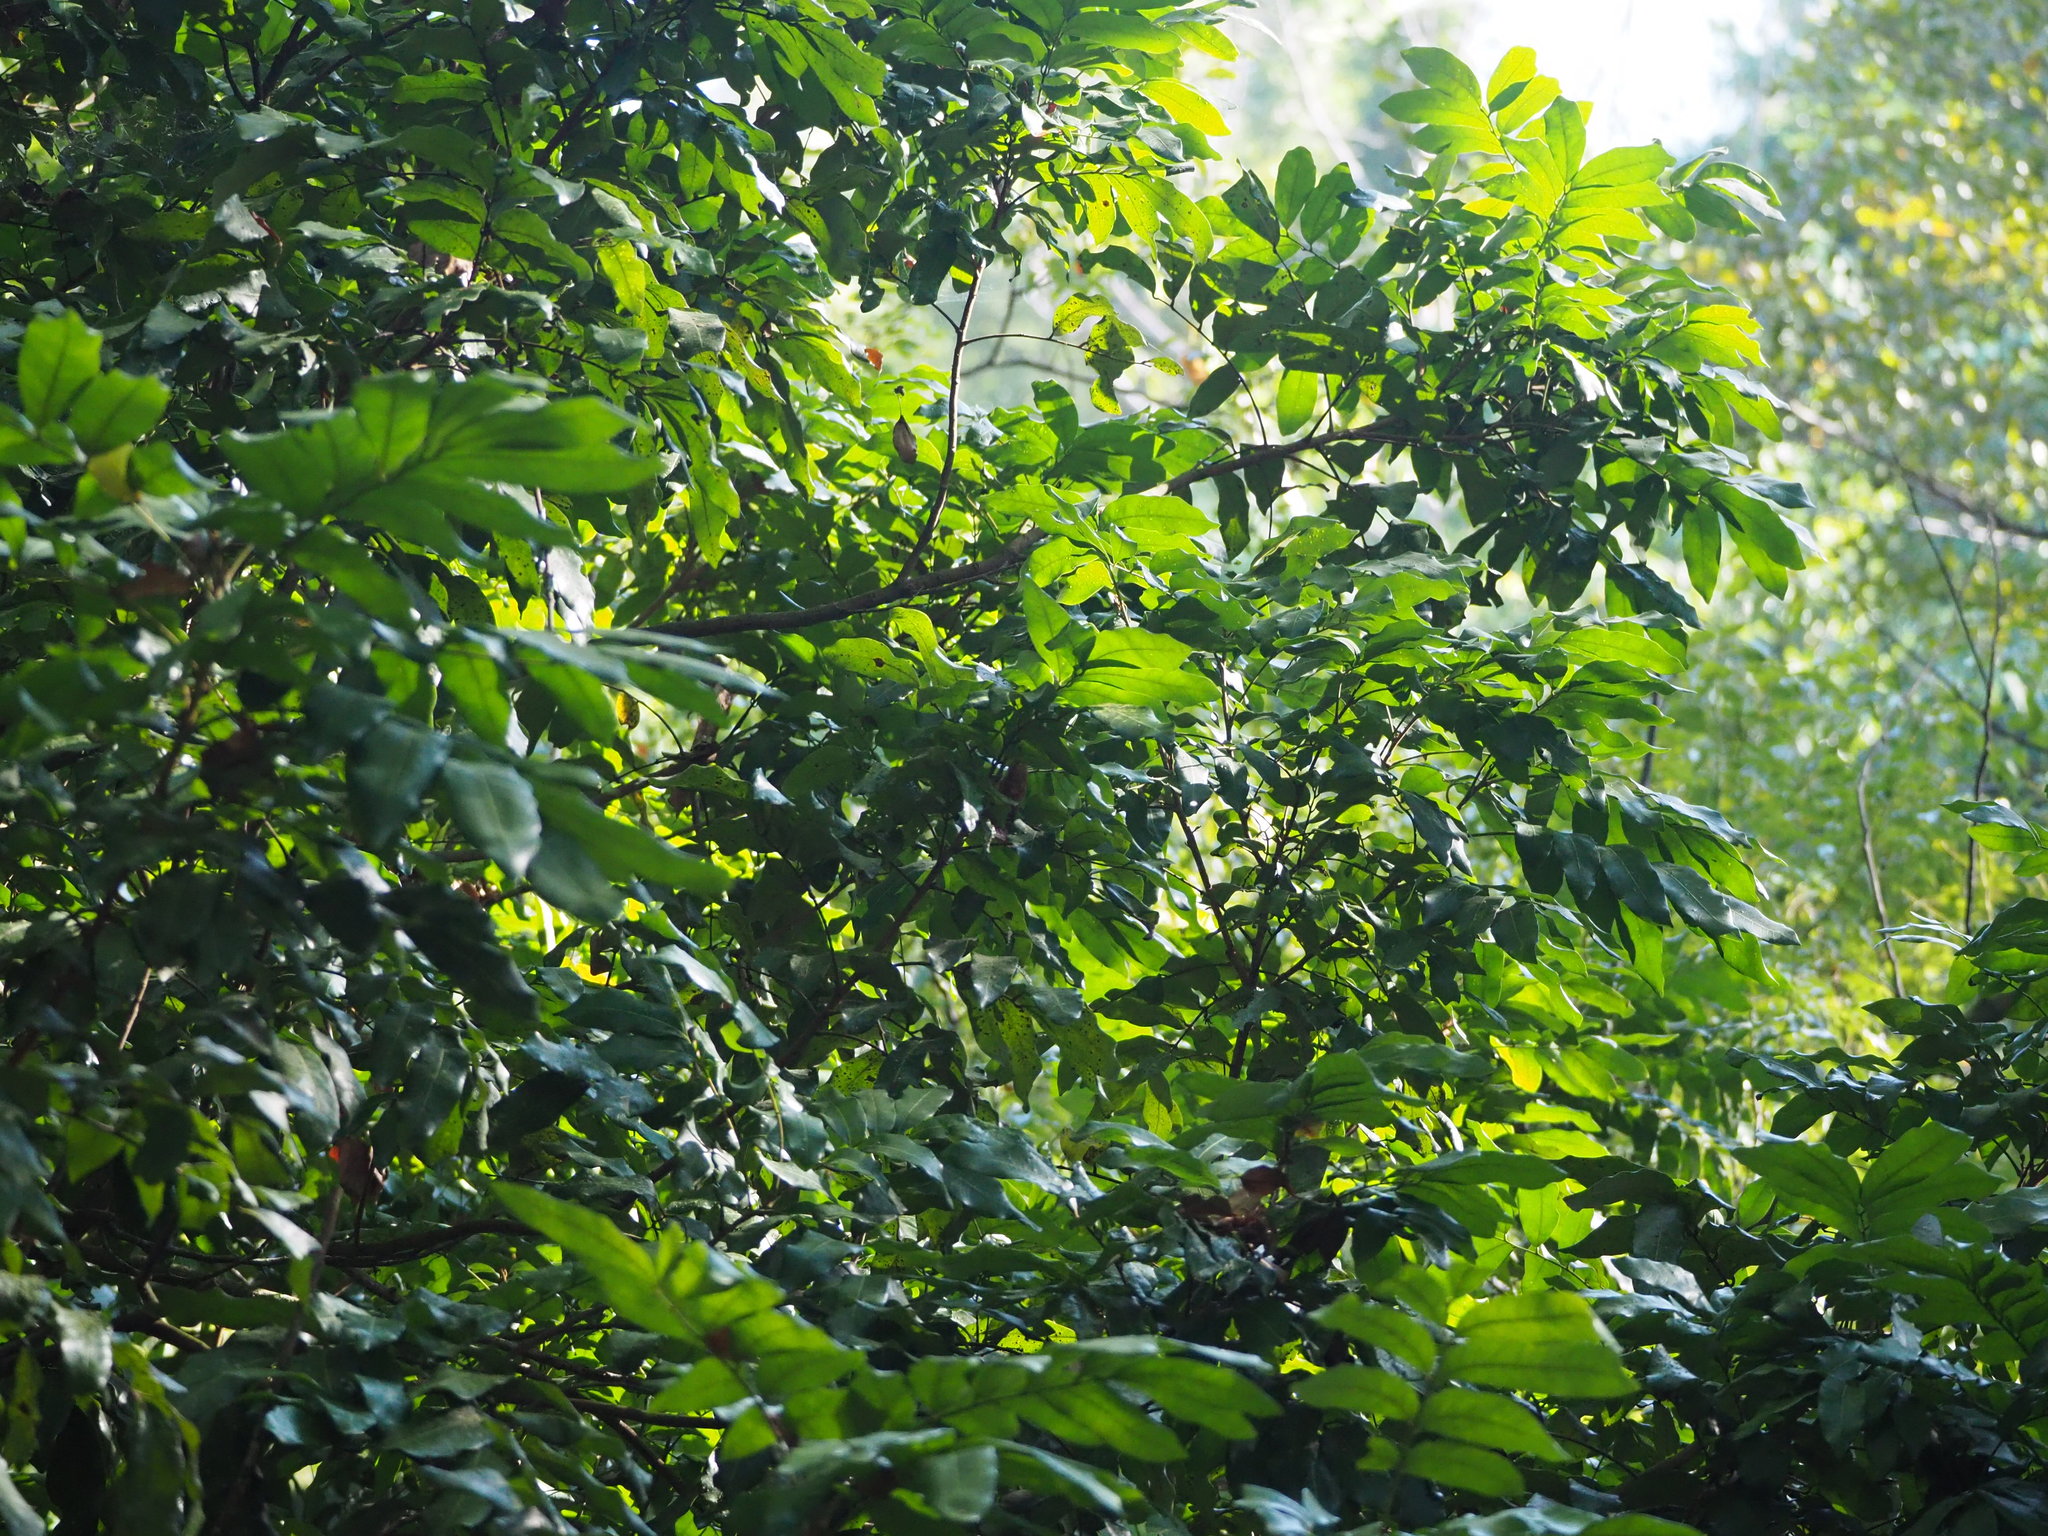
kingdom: Plantae
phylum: Tracheophyta
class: Magnoliopsida
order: Sapindales
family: Sapindaceae
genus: Dimocarpus
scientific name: Dimocarpus longan
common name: Longan
